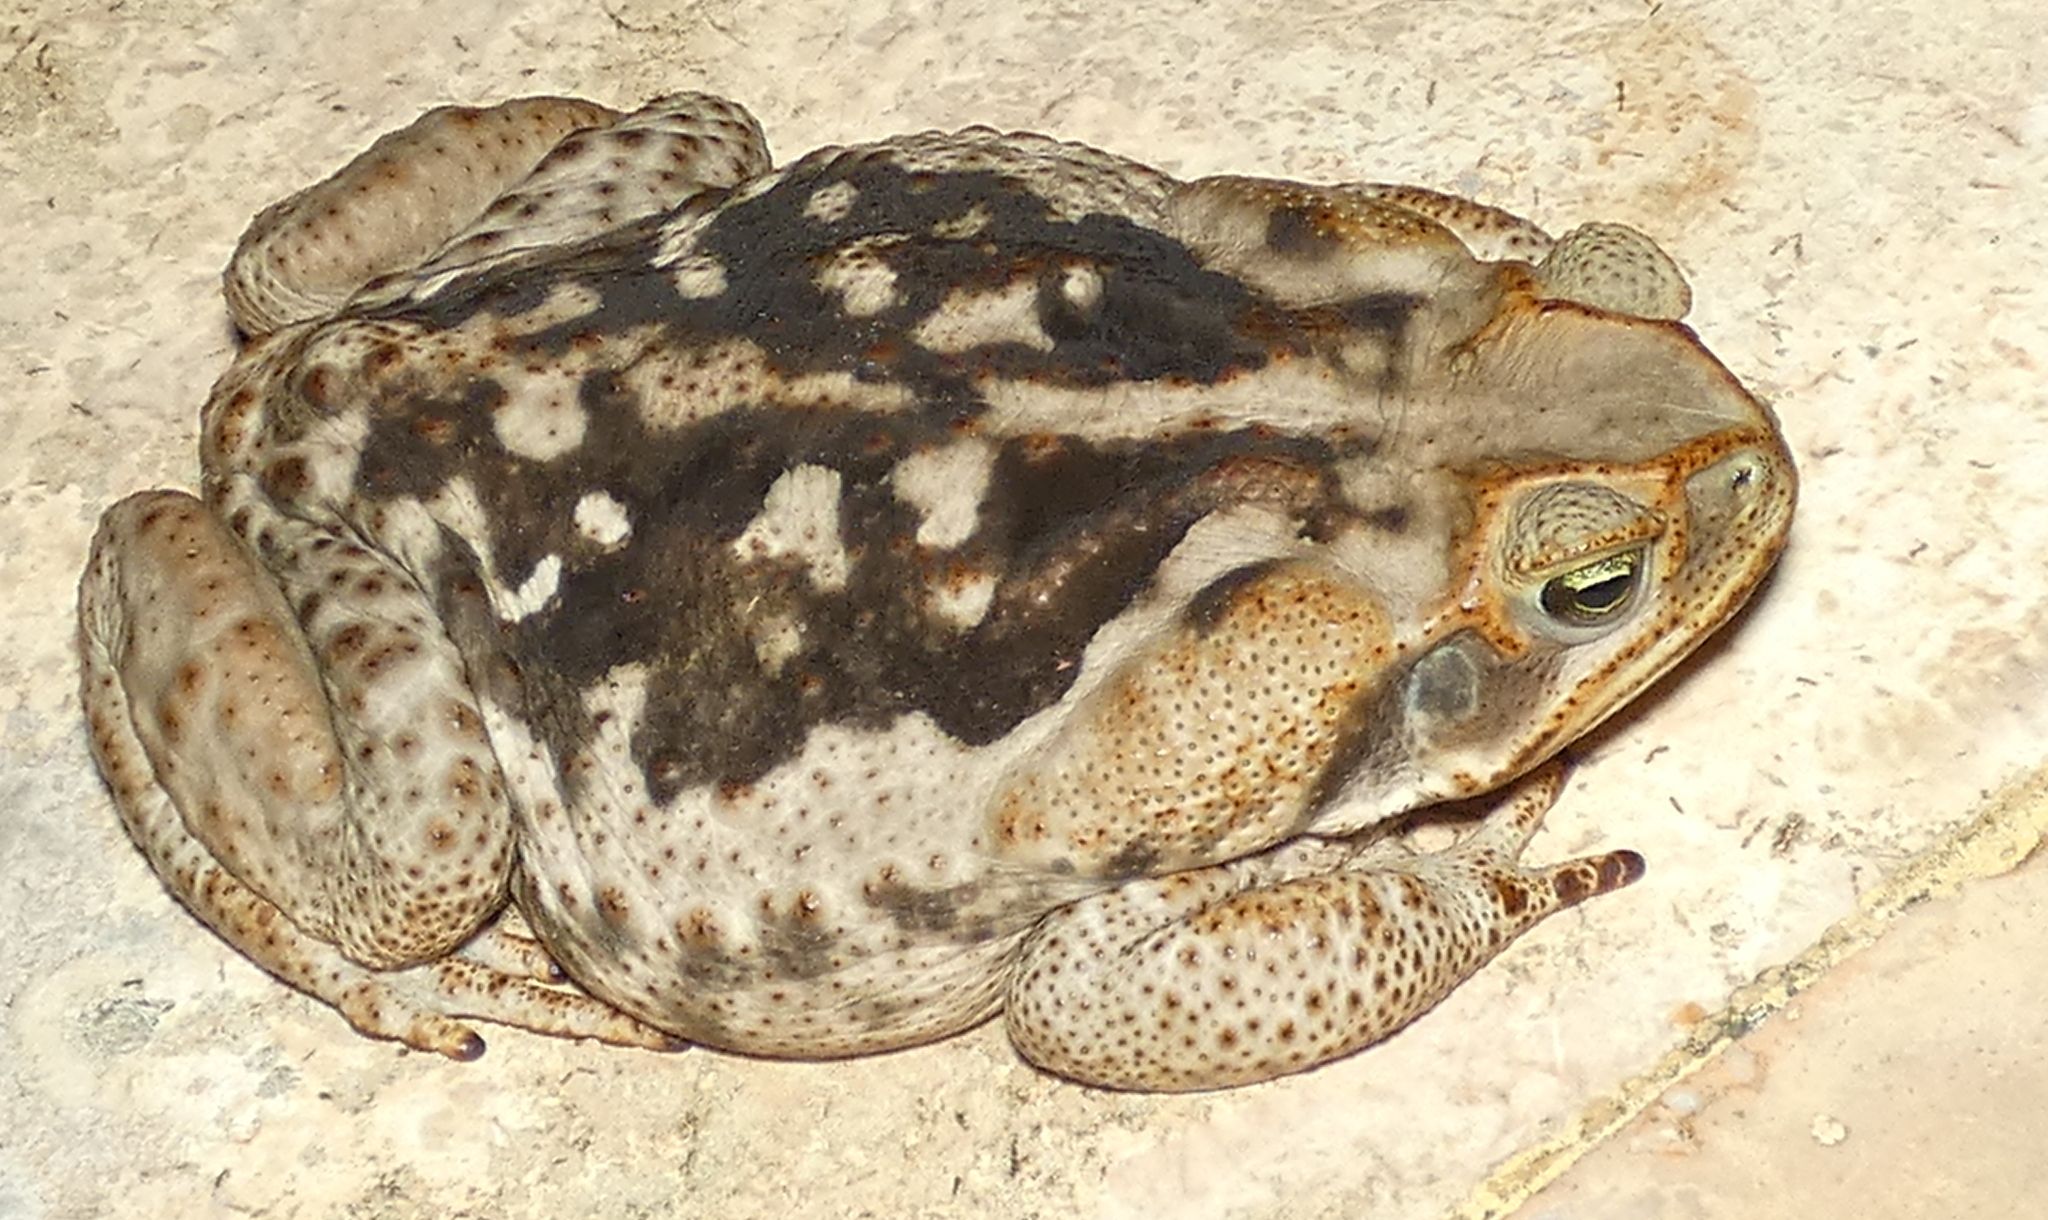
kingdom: Animalia
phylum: Chordata
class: Amphibia
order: Anura
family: Bufonidae
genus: Rhinella
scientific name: Rhinella diptycha
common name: Cope's toad
